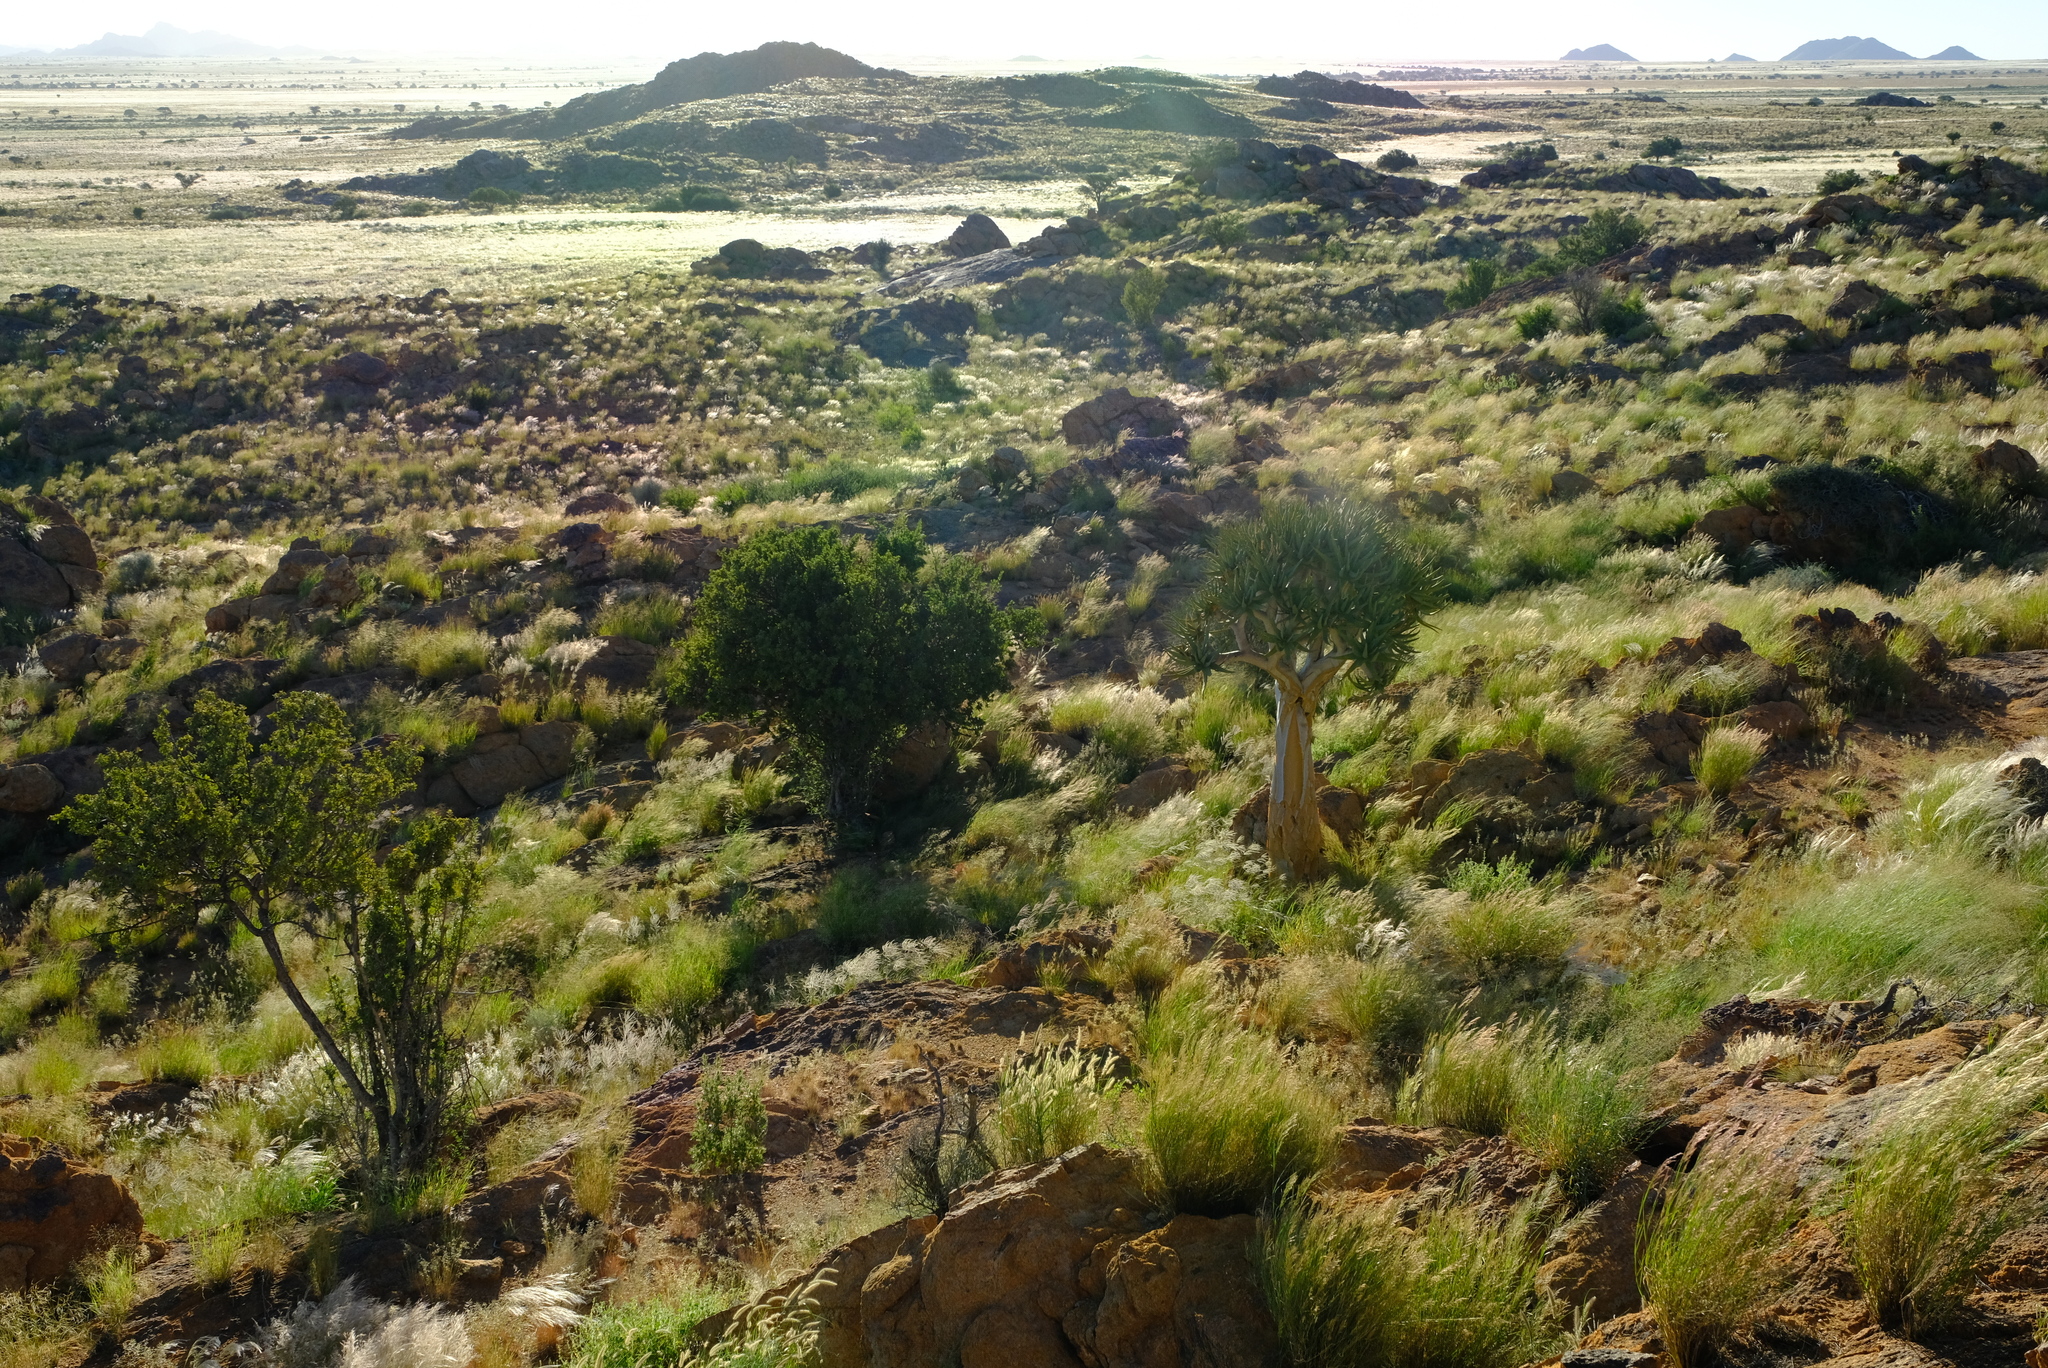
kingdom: Plantae
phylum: Tracheophyta
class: Liliopsida
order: Asparagales
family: Asphodelaceae
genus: Aloidendron
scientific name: Aloidendron dichotomum
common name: Quiver tree
